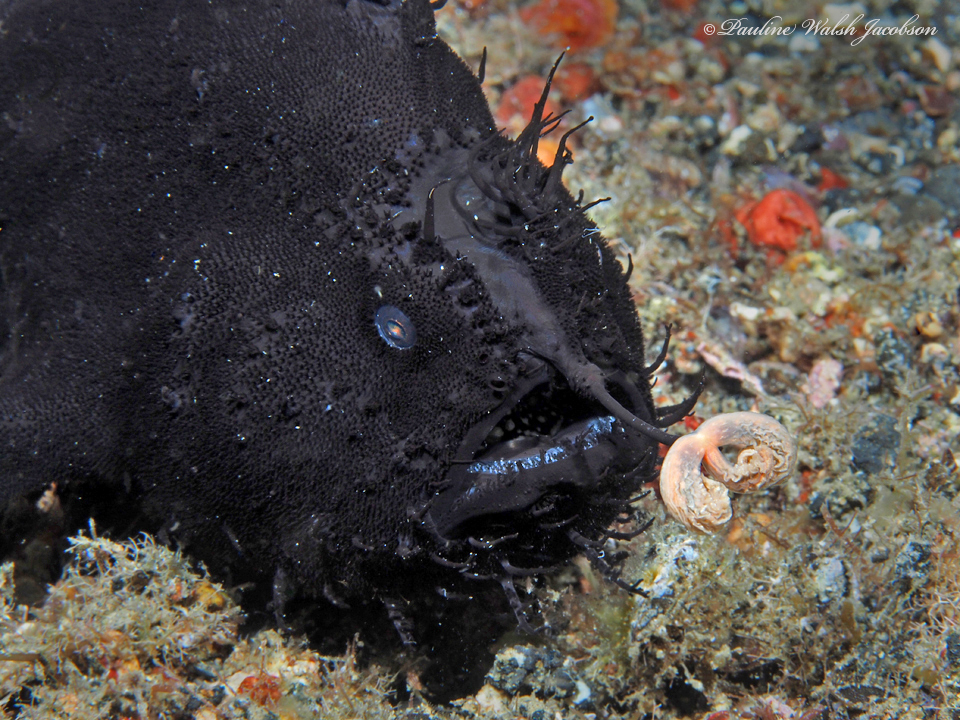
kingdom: Animalia
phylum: Chordata
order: Lophiiformes
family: Antennariidae
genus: Antennarius
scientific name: Antennarius striatus
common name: Striated frogfish
